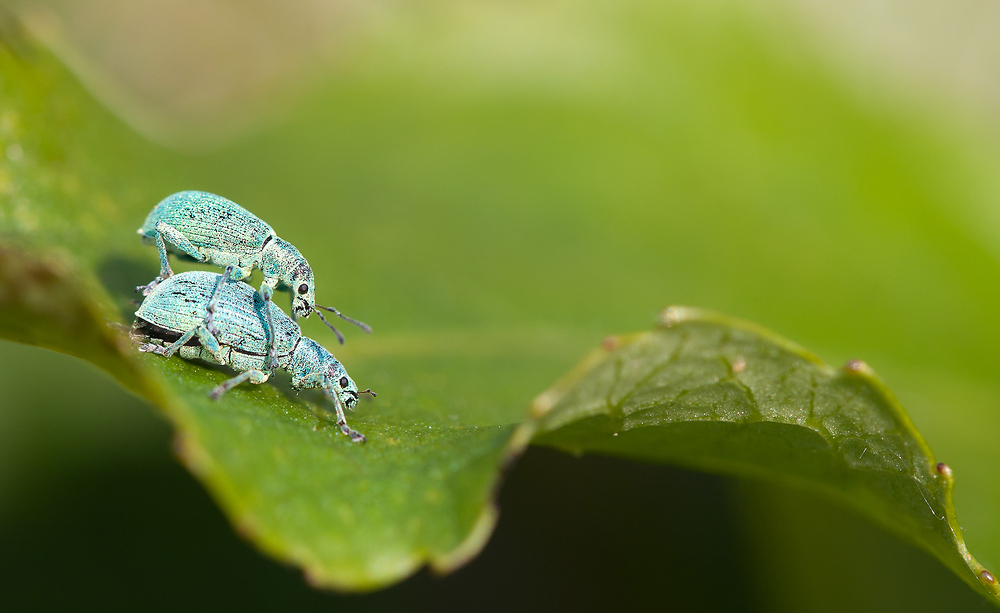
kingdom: Animalia
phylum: Arthropoda
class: Insecta
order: Coleoptera
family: Curculionidae
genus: Polydrusus
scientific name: Polydrusus planifrons
